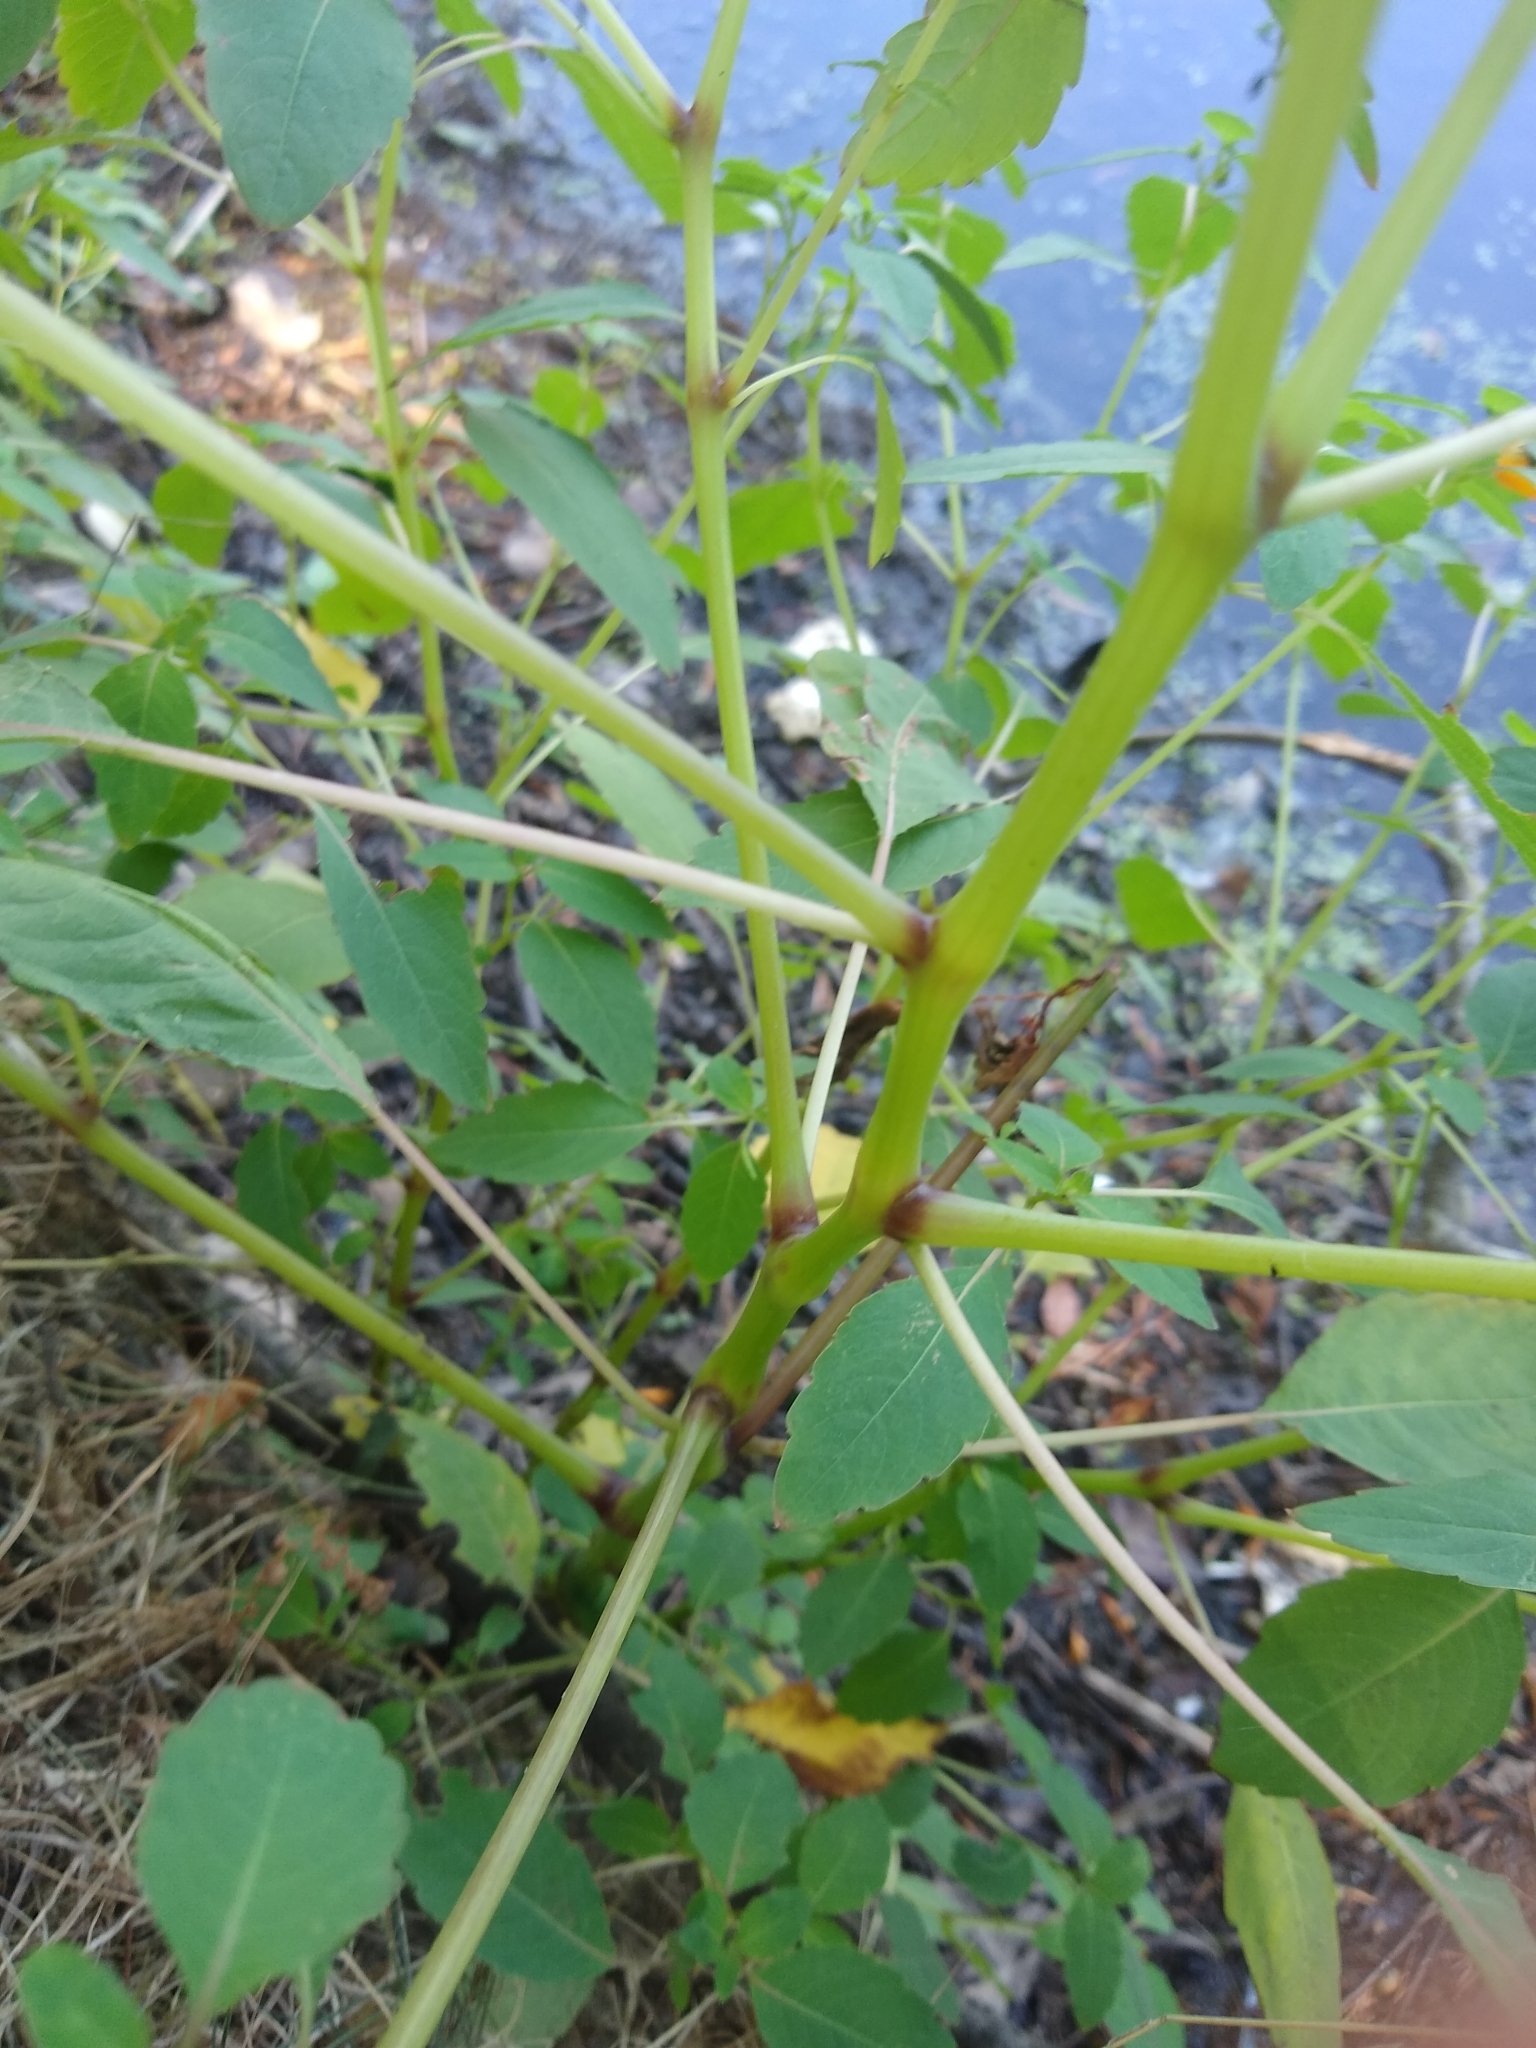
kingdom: Plantae
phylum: Tracheophyta
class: Magnoliopsida
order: Ericales
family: Balsaminaceae
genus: Impatiens
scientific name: Impatiens capensis
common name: Orange balsam
